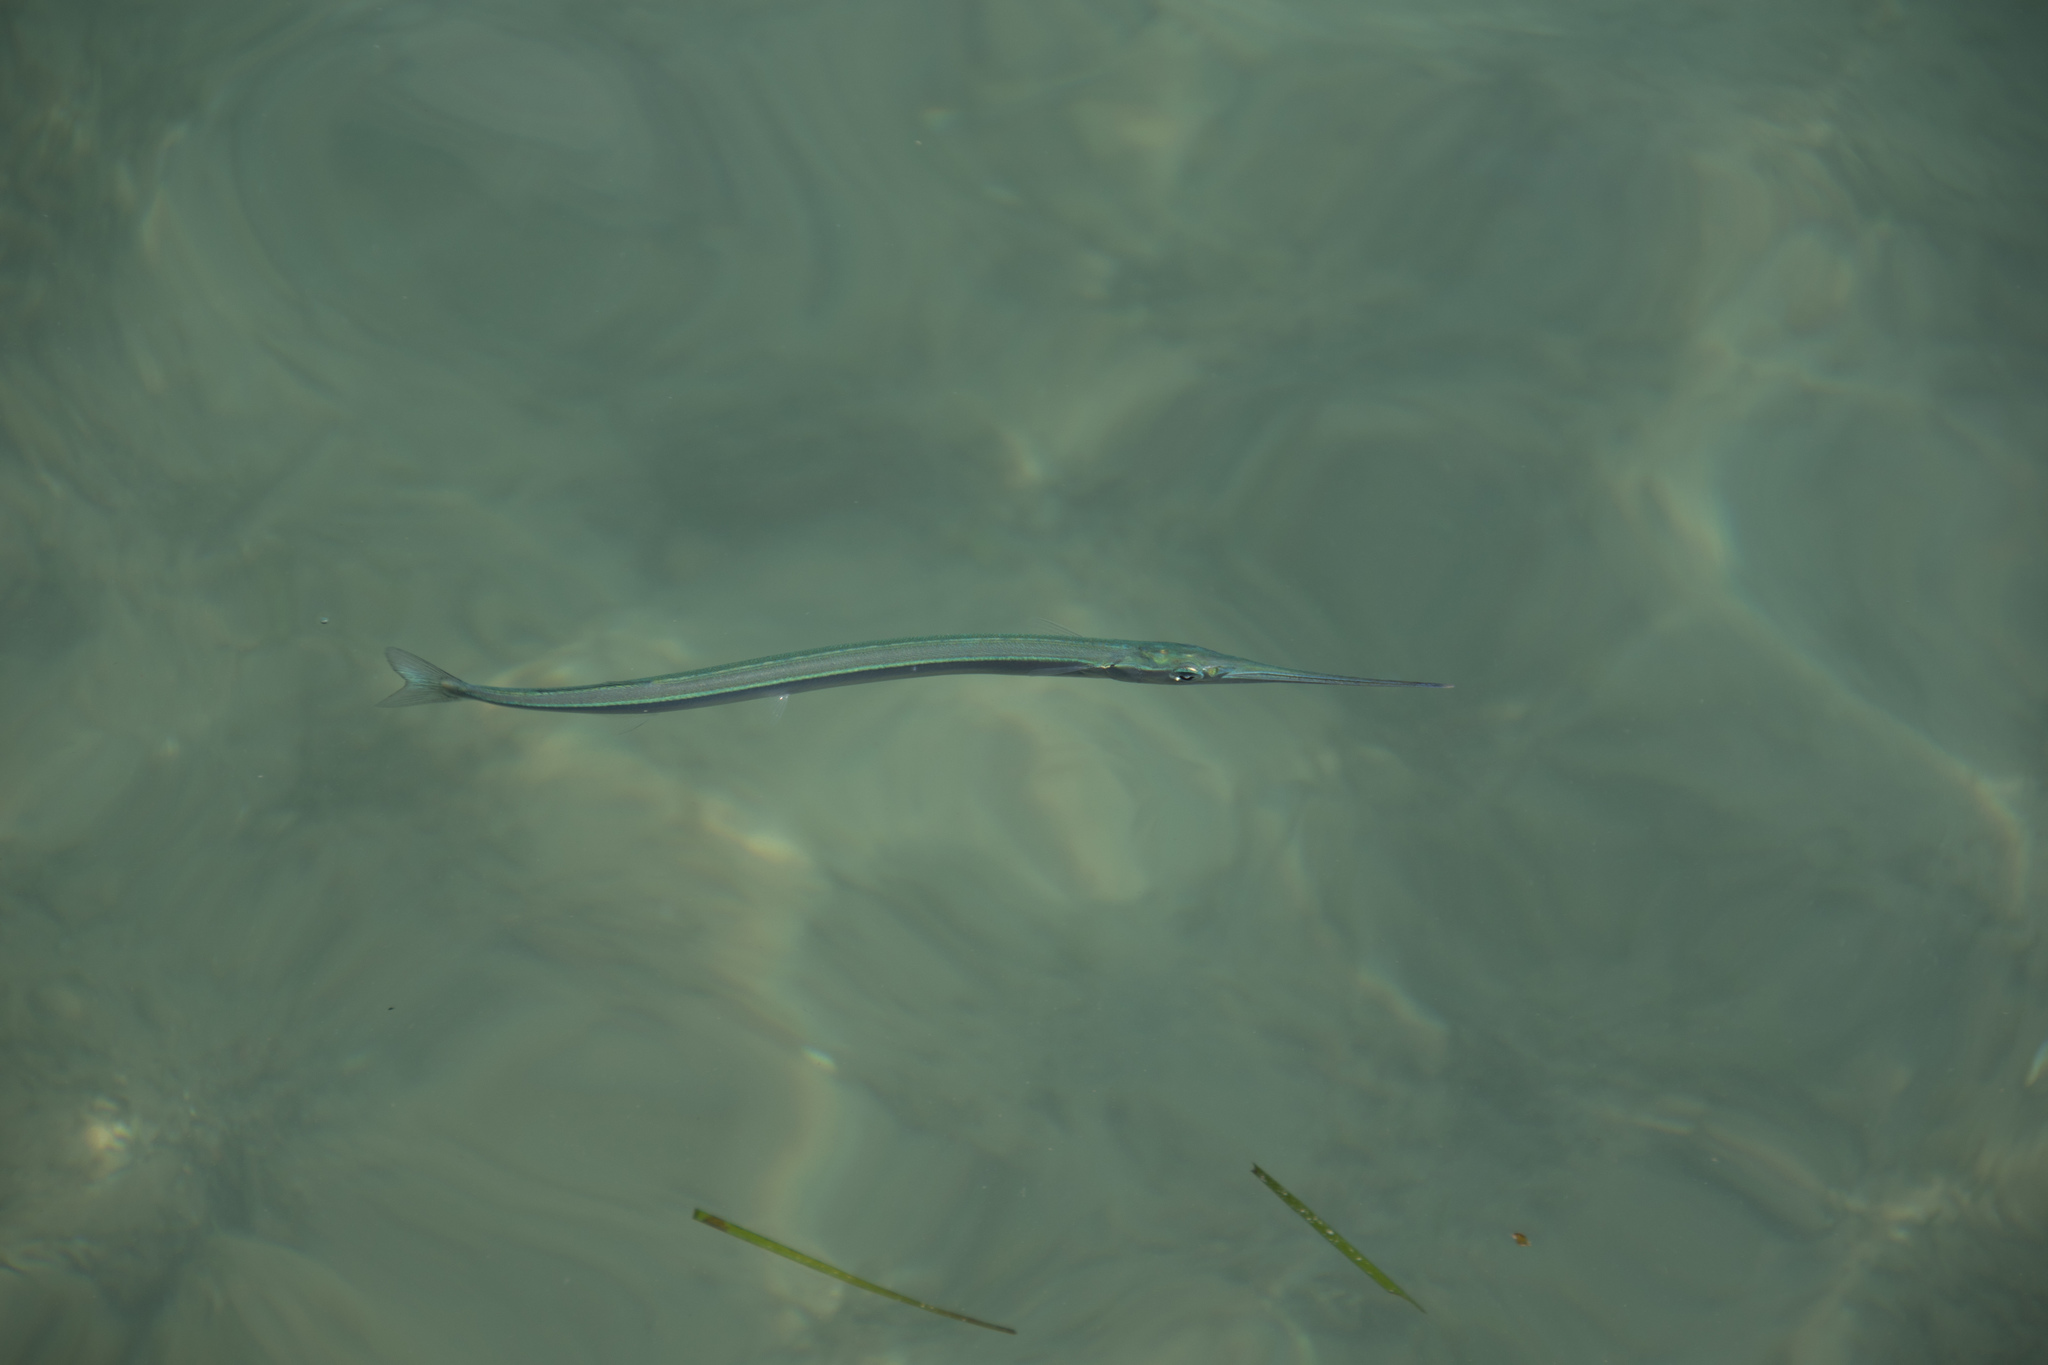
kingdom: Animalia
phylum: Chordata
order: Beloniformes
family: Belonidae
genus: Belone
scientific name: Belone
